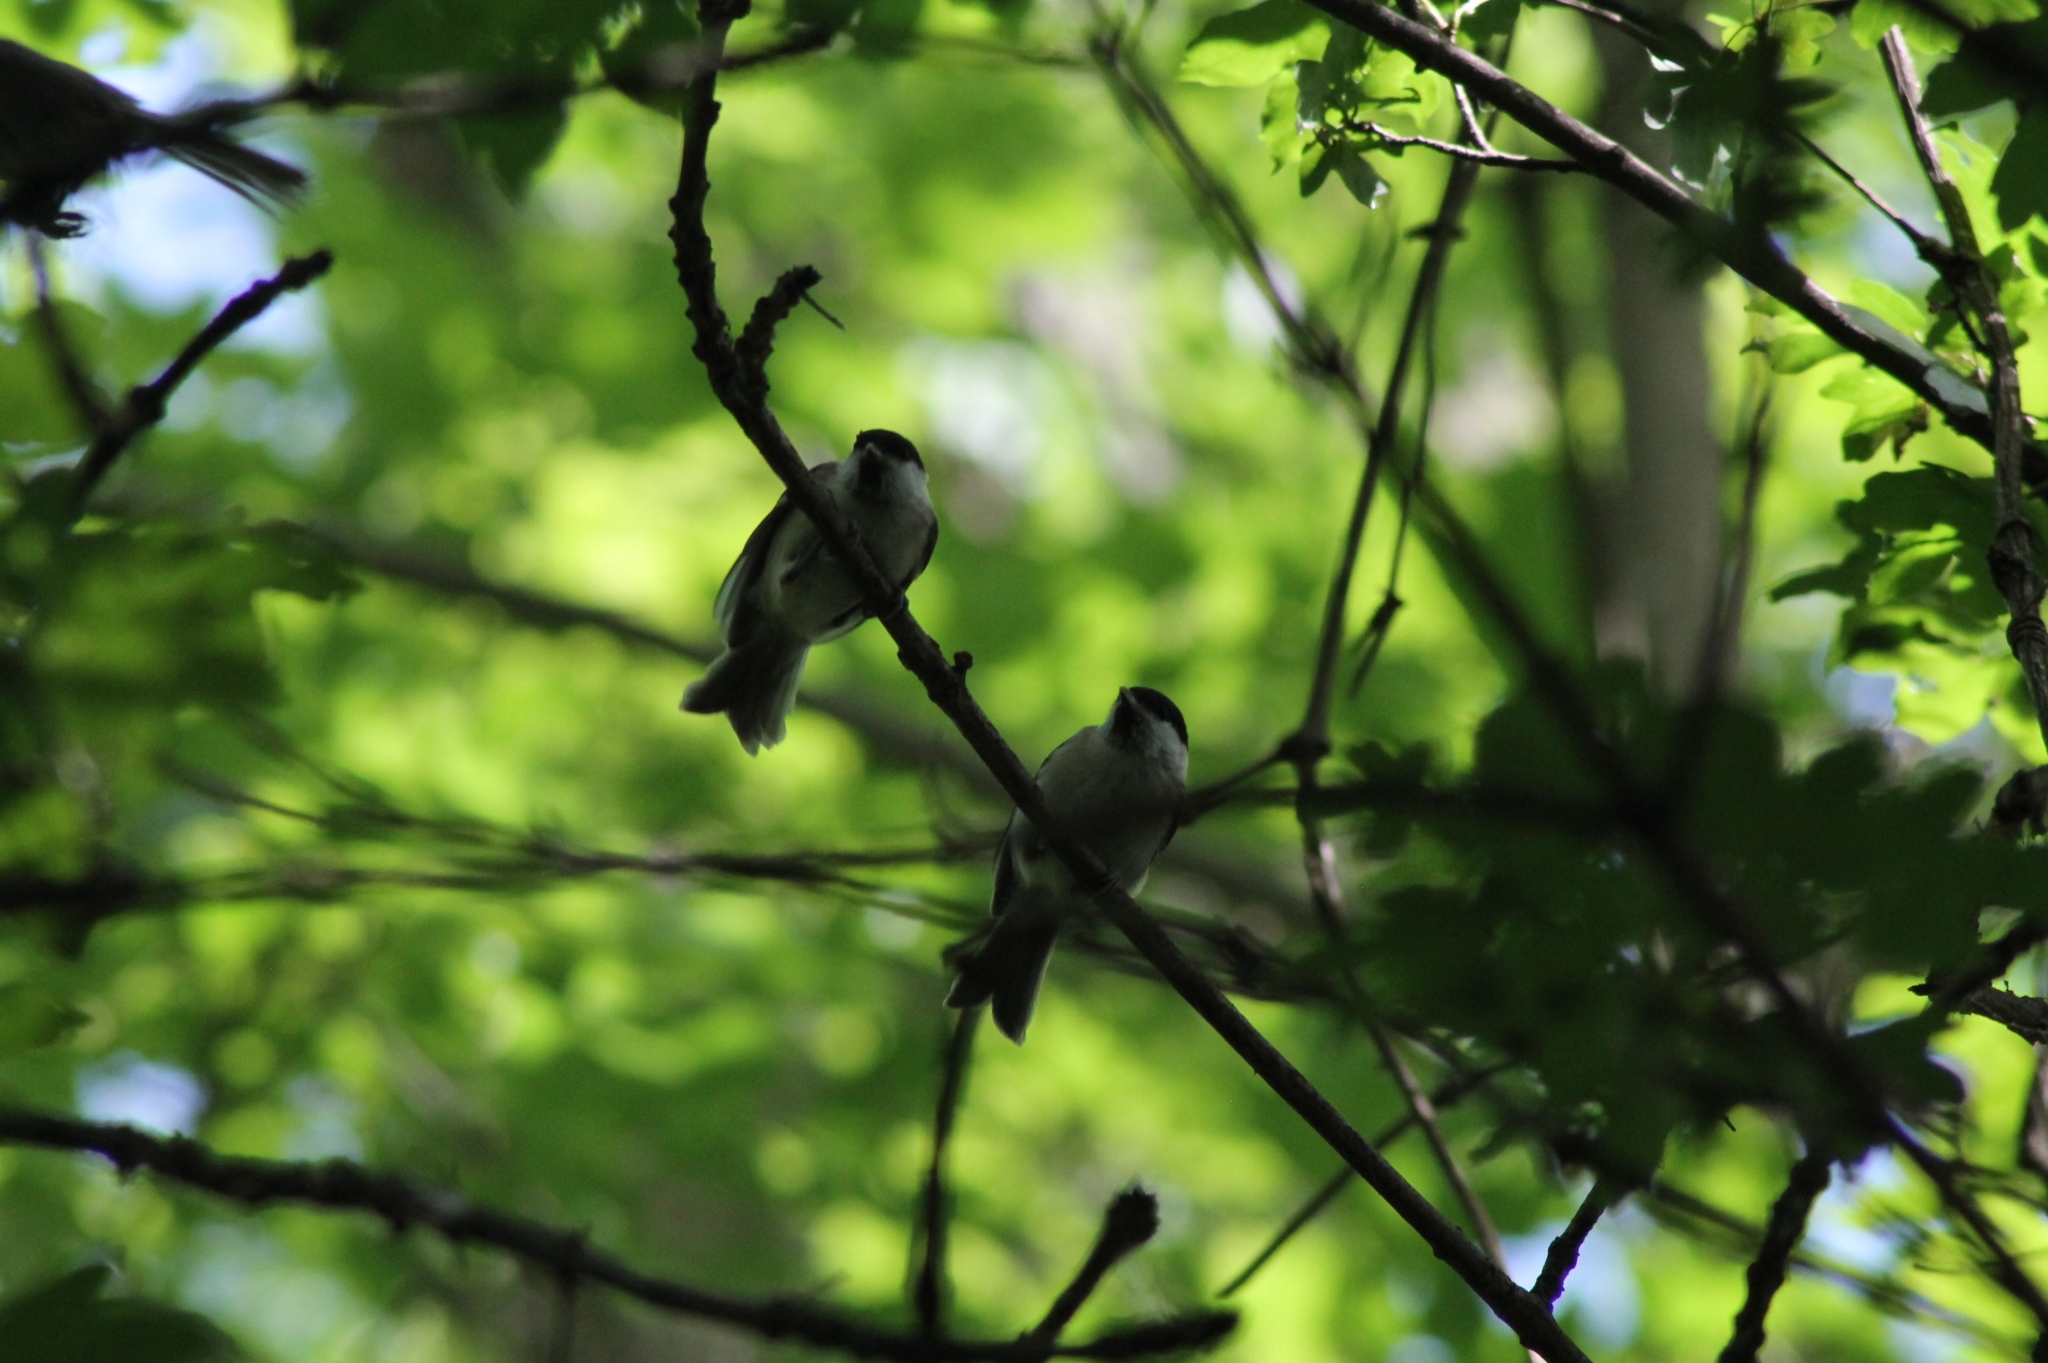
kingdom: Animalia
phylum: Chordata
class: Aves
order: Passeriformes
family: Paridae
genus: Poecile
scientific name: Poecile palustris
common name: Marsh tit
